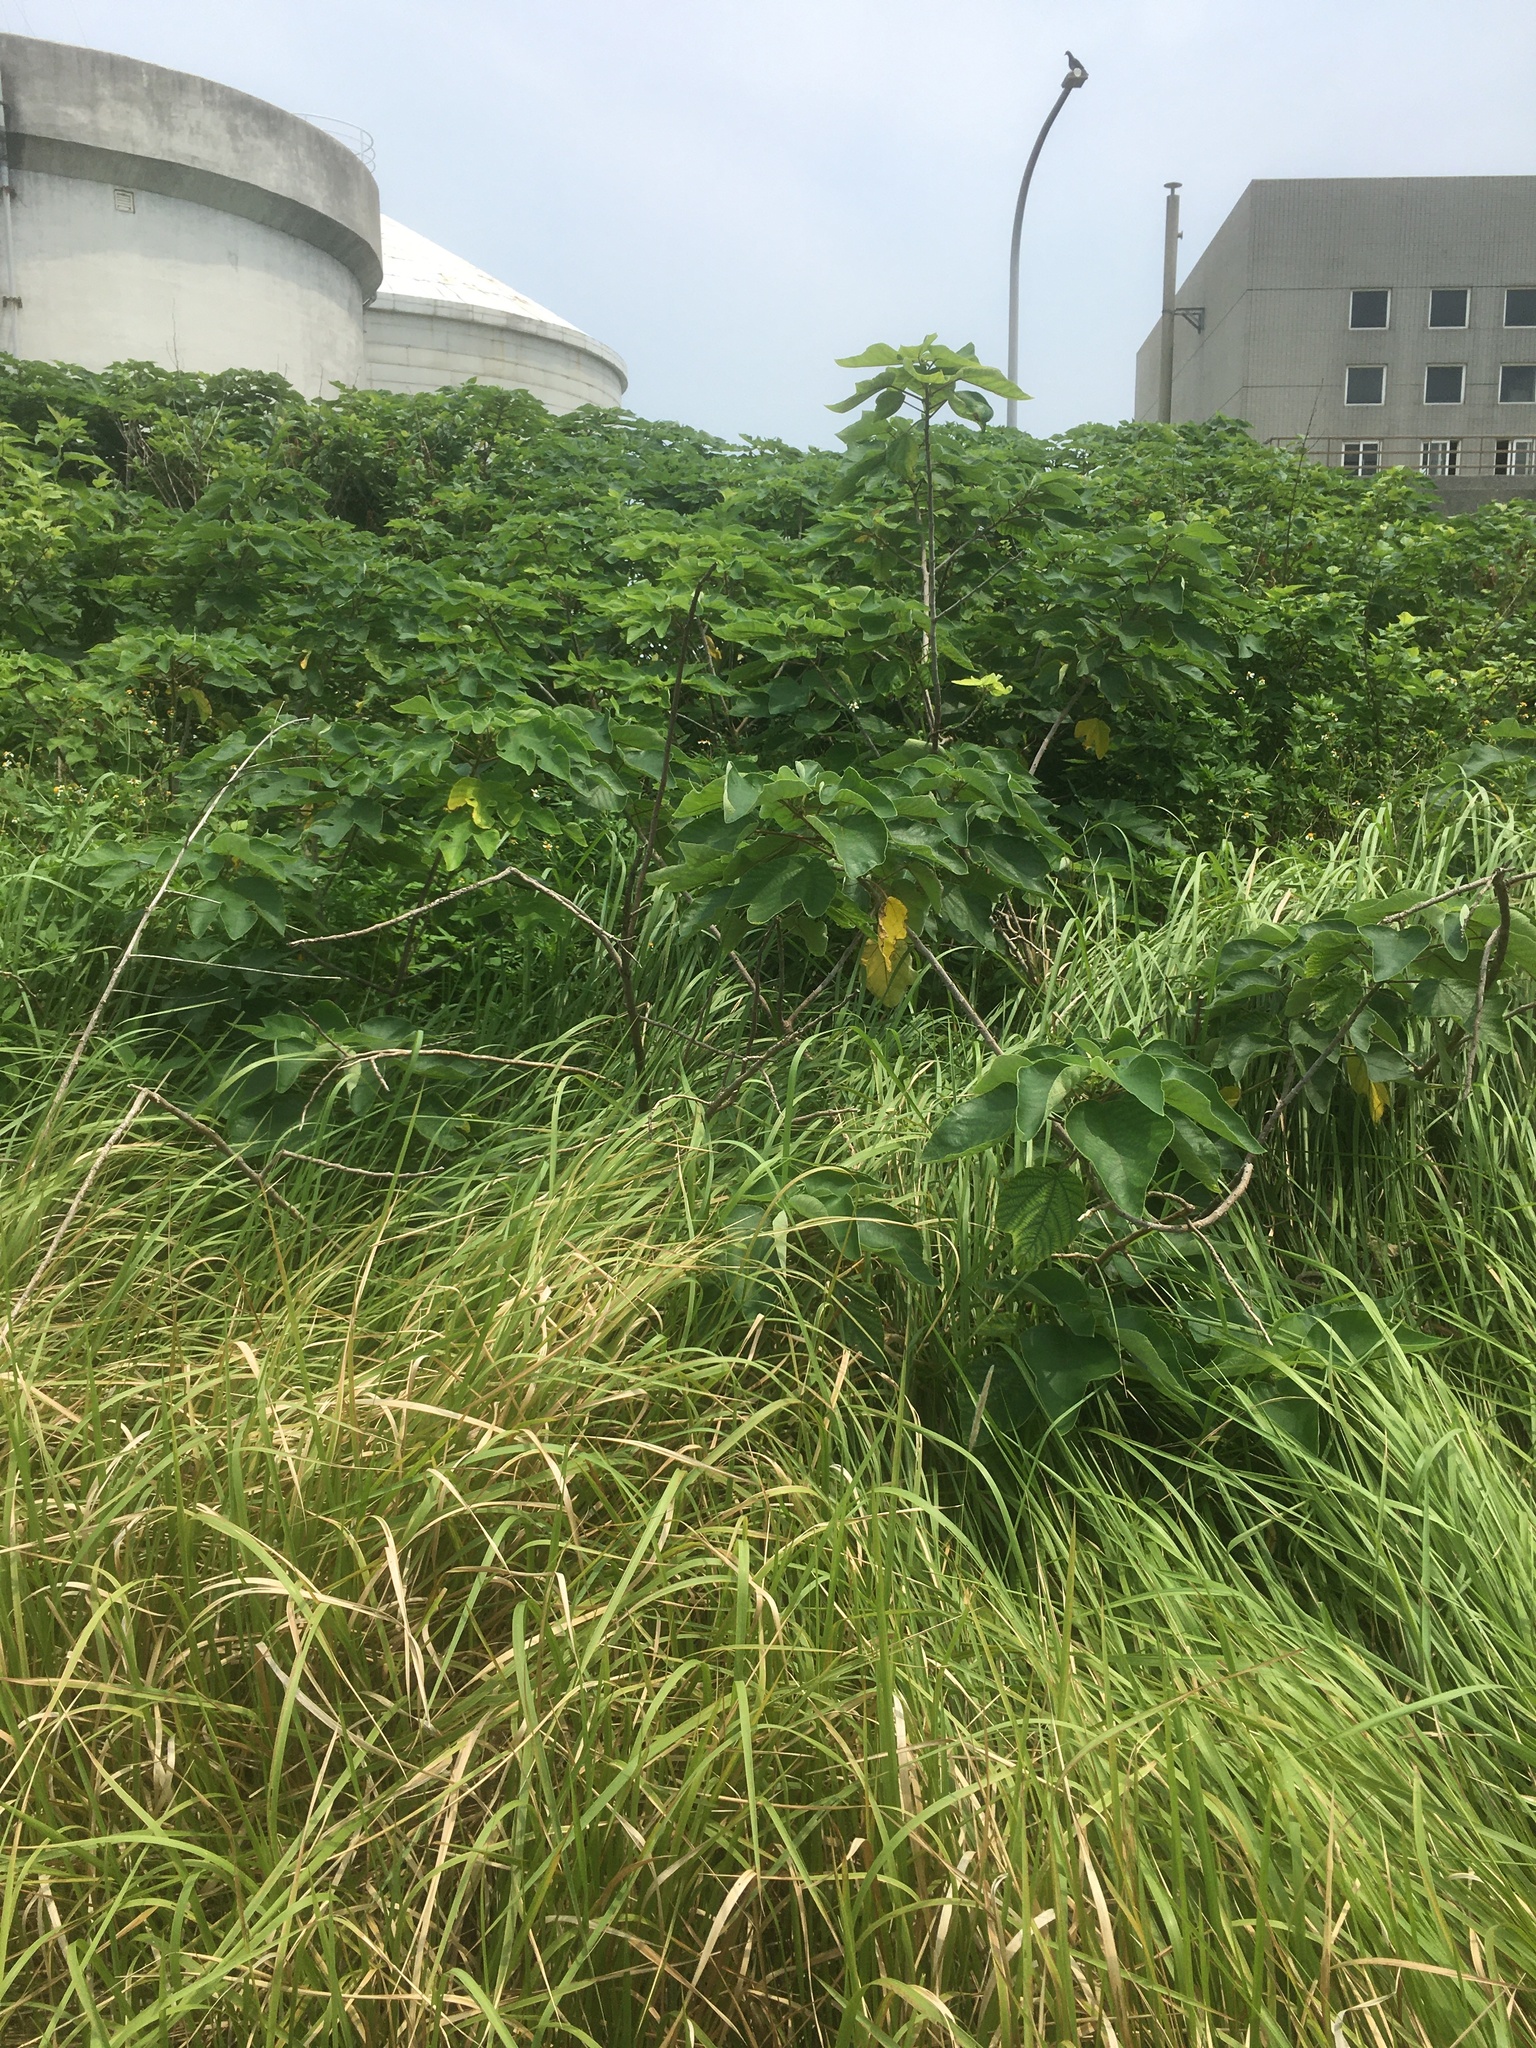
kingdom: Plantae
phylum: Tracheophyta
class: Magnoliopsida
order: Rosales
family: Moraceae
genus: Broussonetia
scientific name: Broussonetia papyrifera
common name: Paper mulberry
